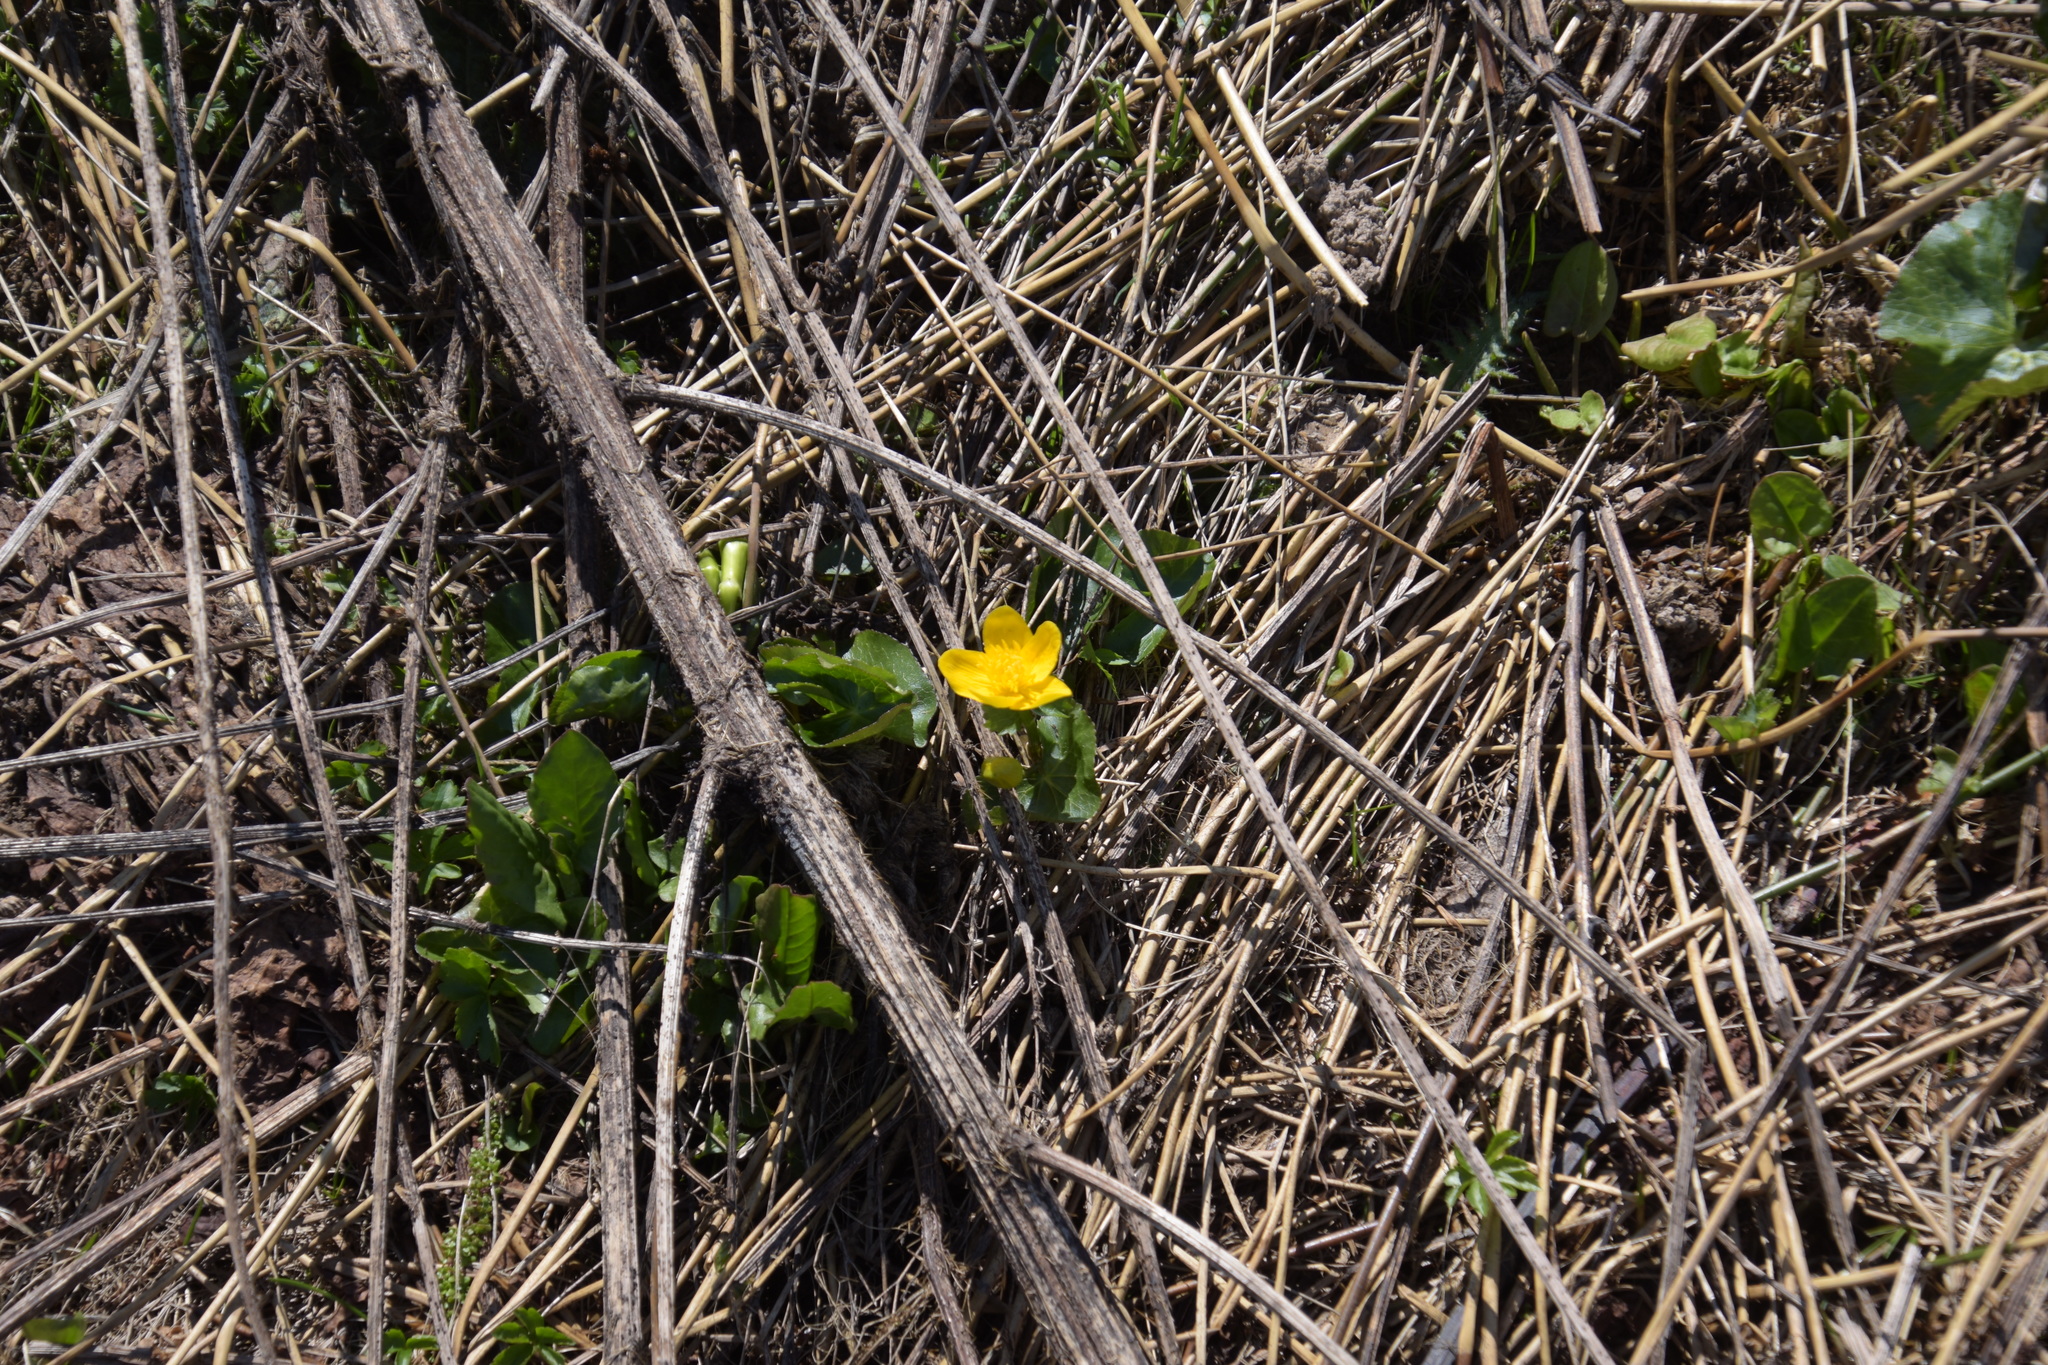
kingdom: Plantae
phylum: Tracheophyta
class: Magnoliopsida
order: Ranunculales
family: Ranunculaceae
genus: Caltha
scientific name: Caltha palustris
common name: Marsh marigold
